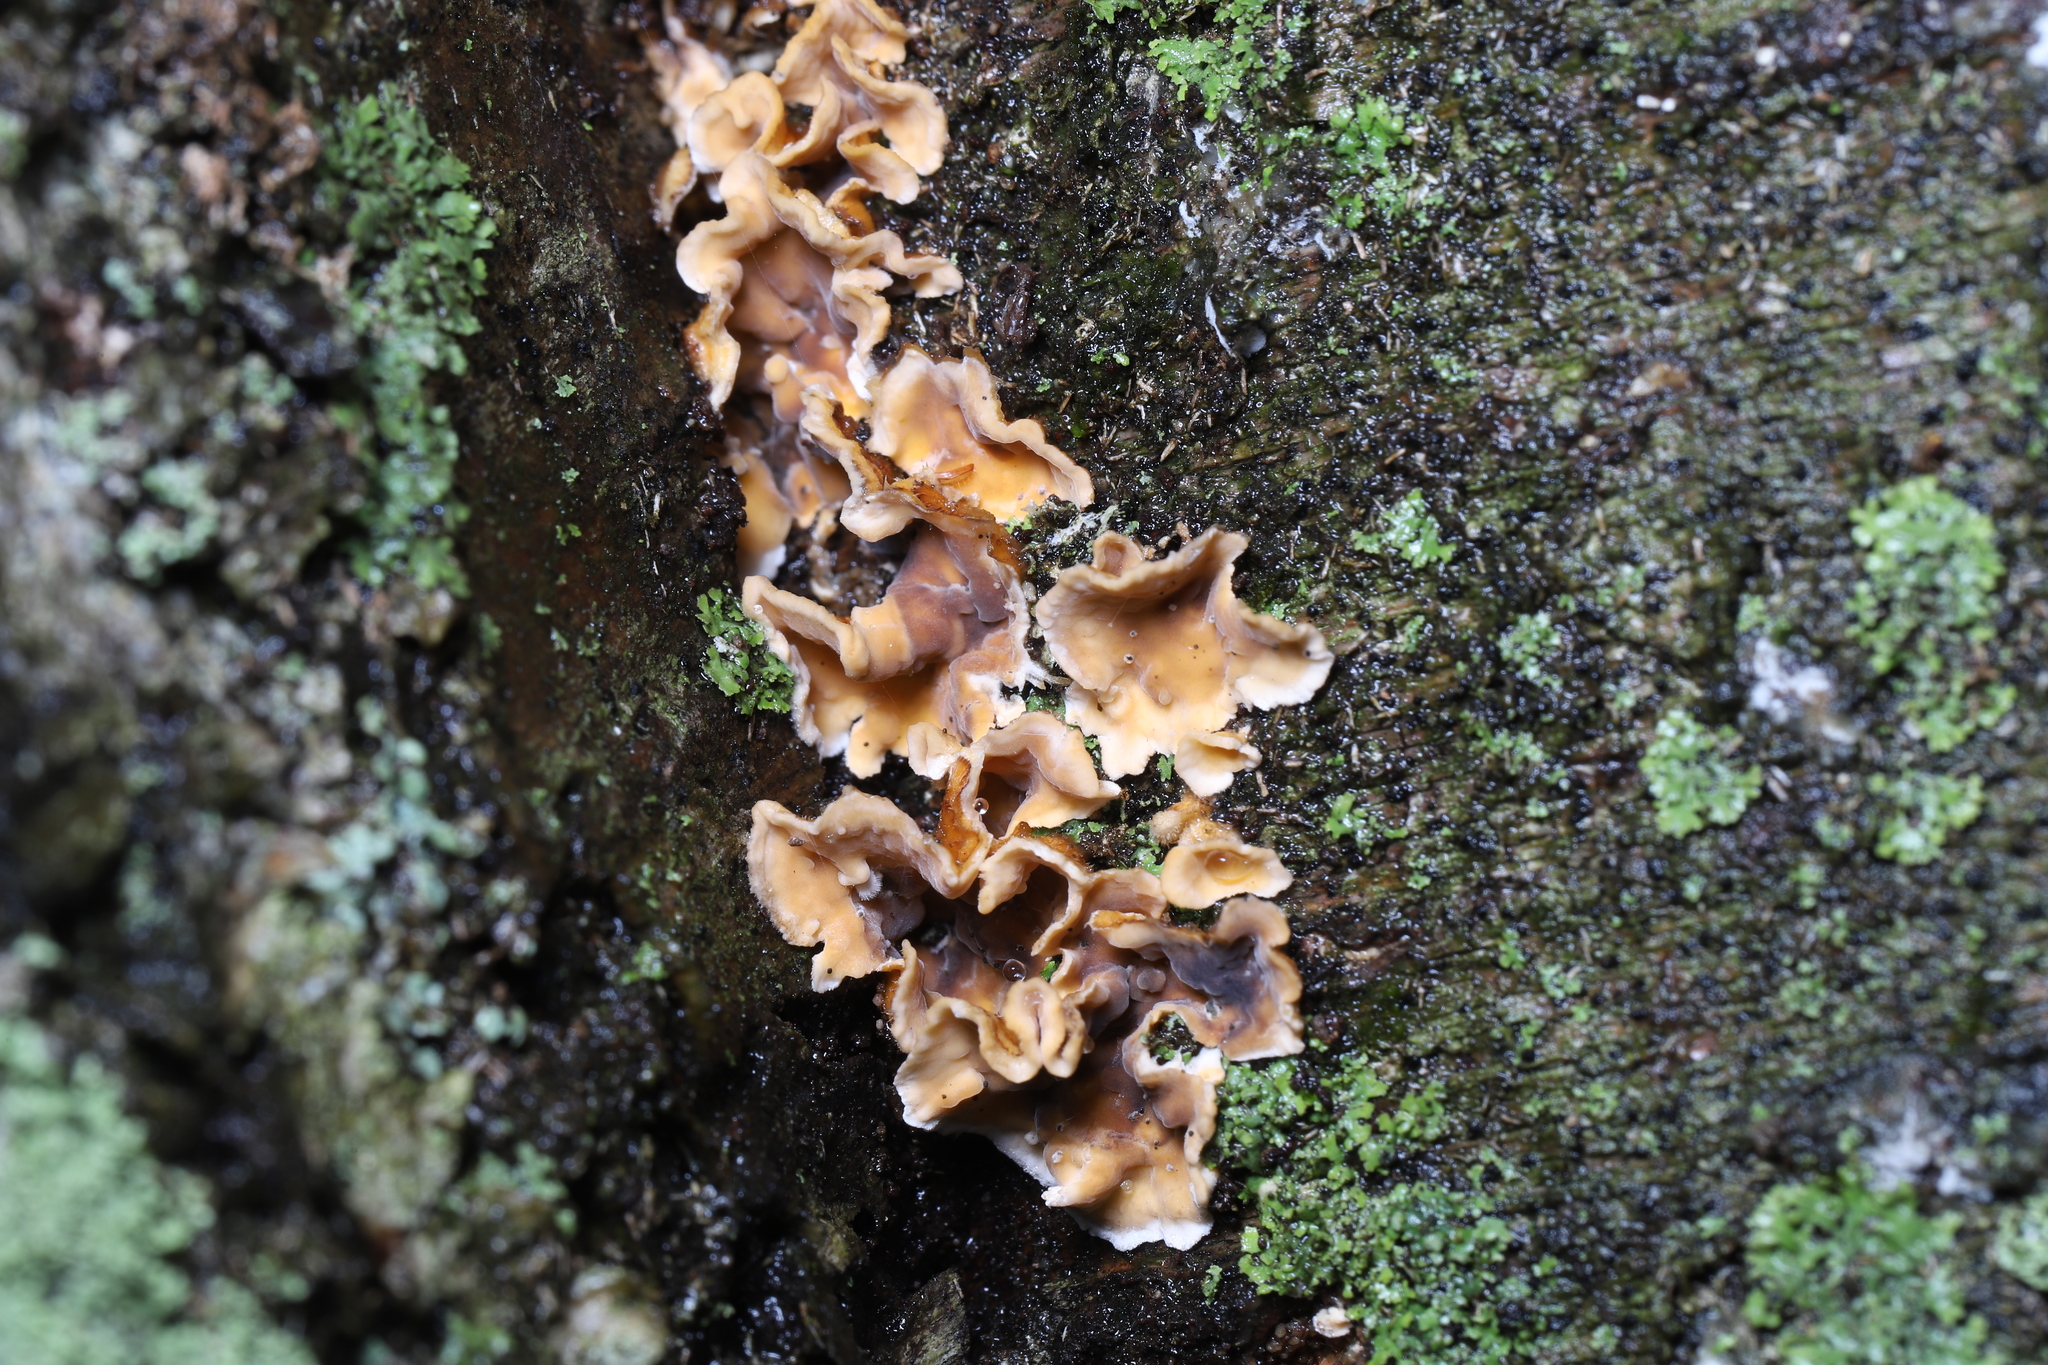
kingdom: Fungi
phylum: Basidiomycota
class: Agaricomycetes
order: Russulales
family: Stereaceae
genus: Stereum
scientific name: Stereum complicatum
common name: Crowded parchment
